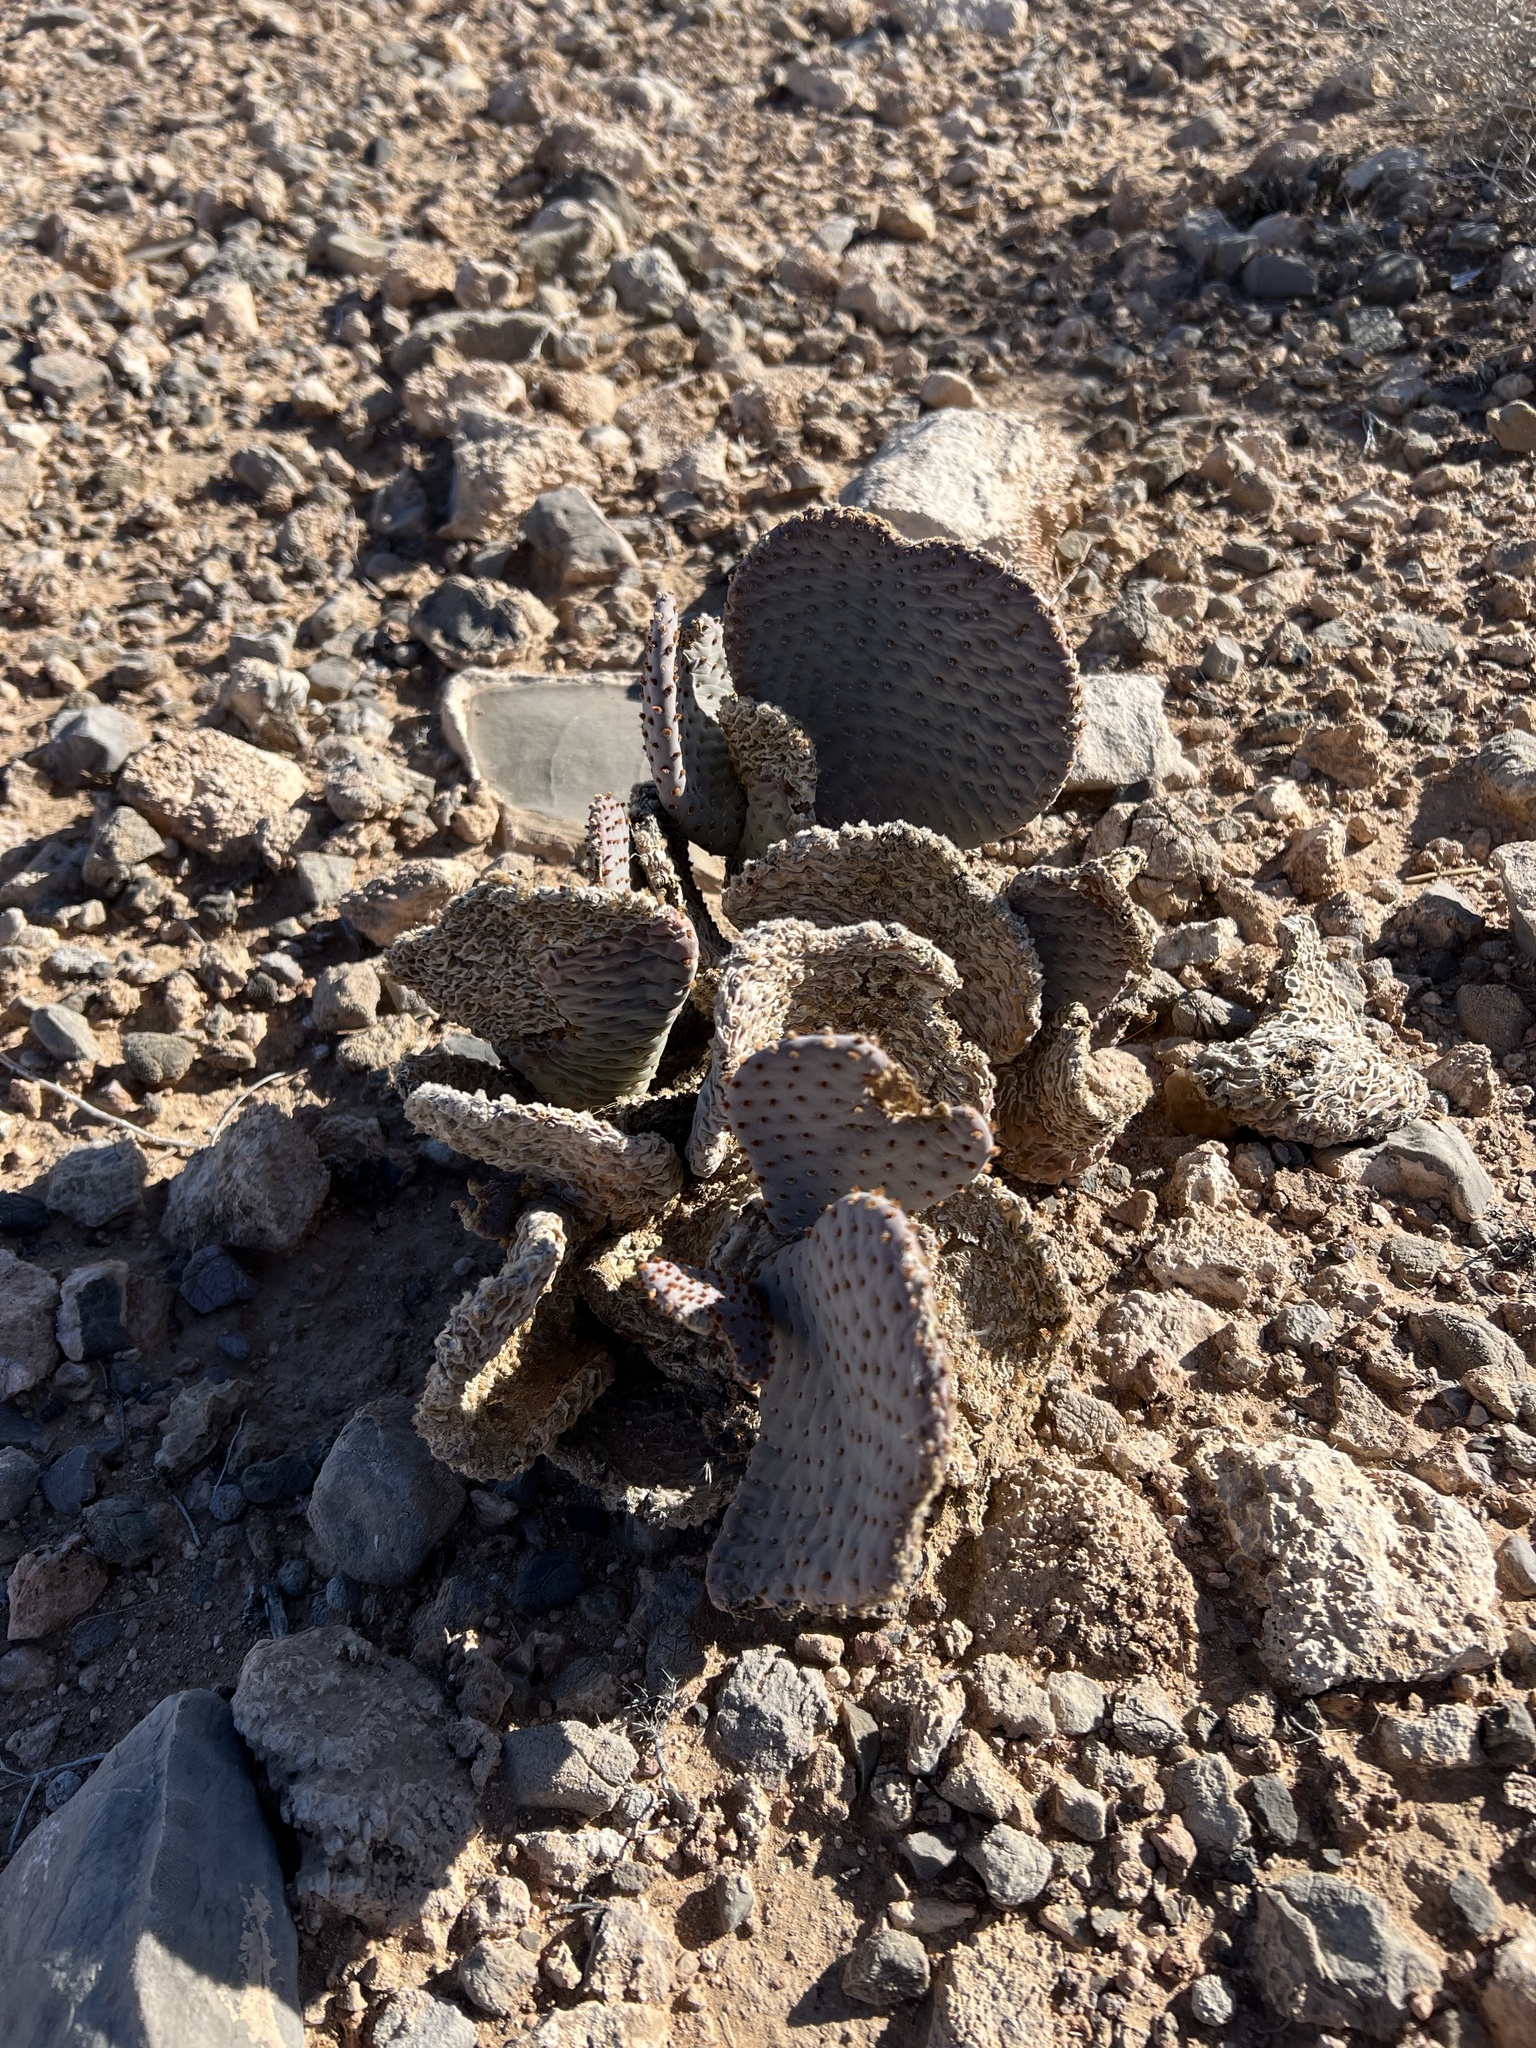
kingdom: Plantae
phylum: Tracheophyta
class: Magnoliopsida
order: Caryophyllales
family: Cactaceae
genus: Opuntia
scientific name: Opuntia basilaris
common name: Beavertail prickly-pear
